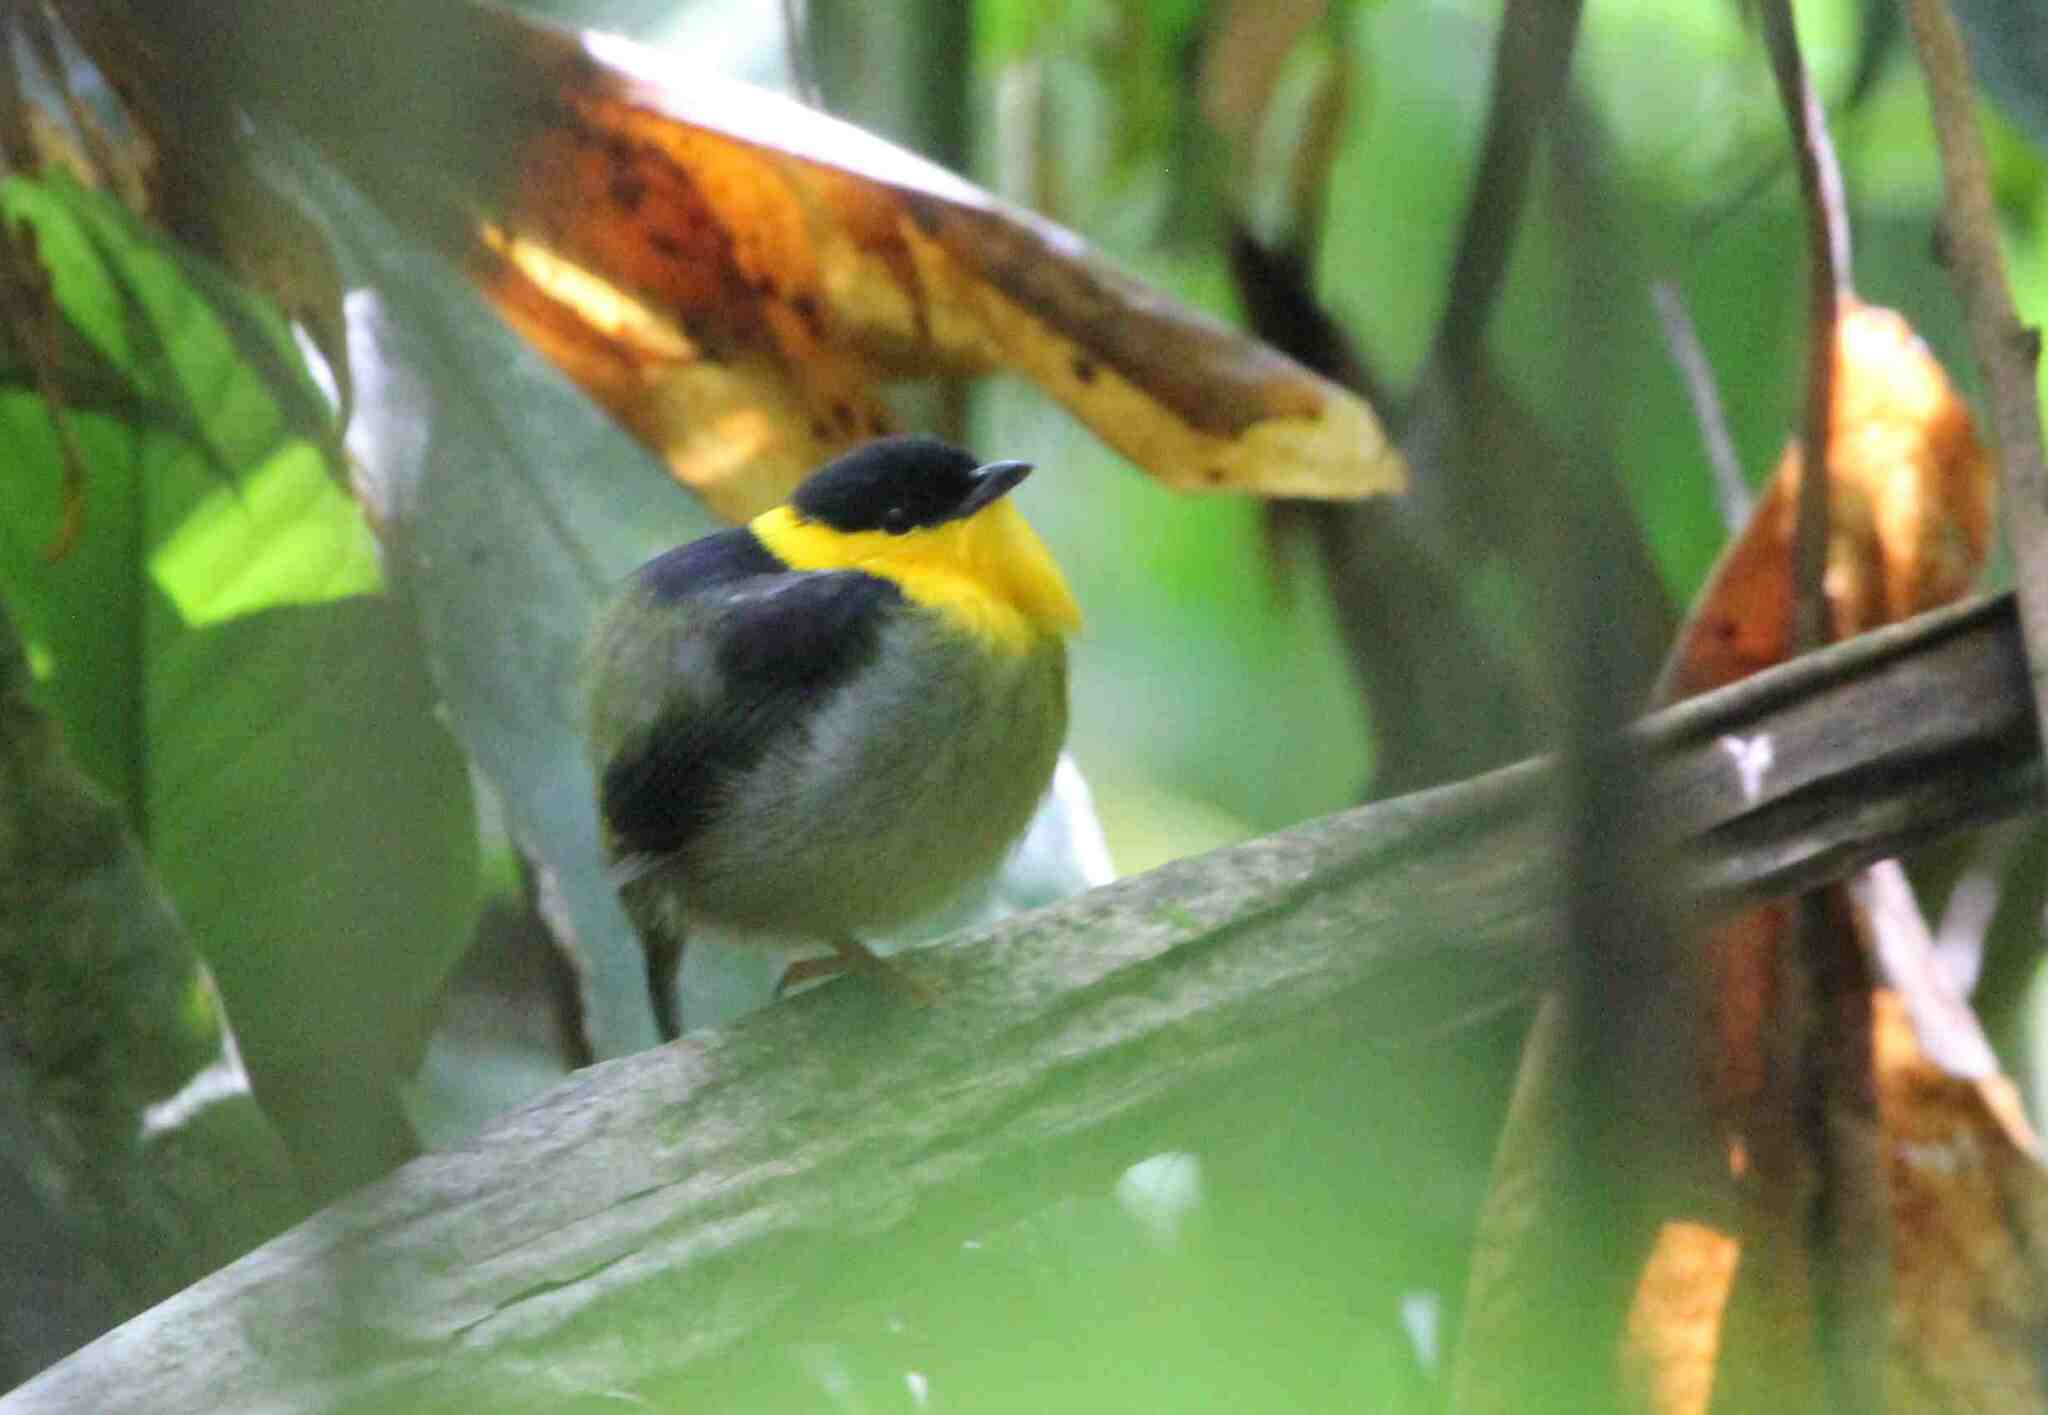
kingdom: Animalia
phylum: Chordata
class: Aves
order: Passeriformes
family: Pipridae
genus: Manacus
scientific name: Manacus vitellinus
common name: Golden-collared manakin
